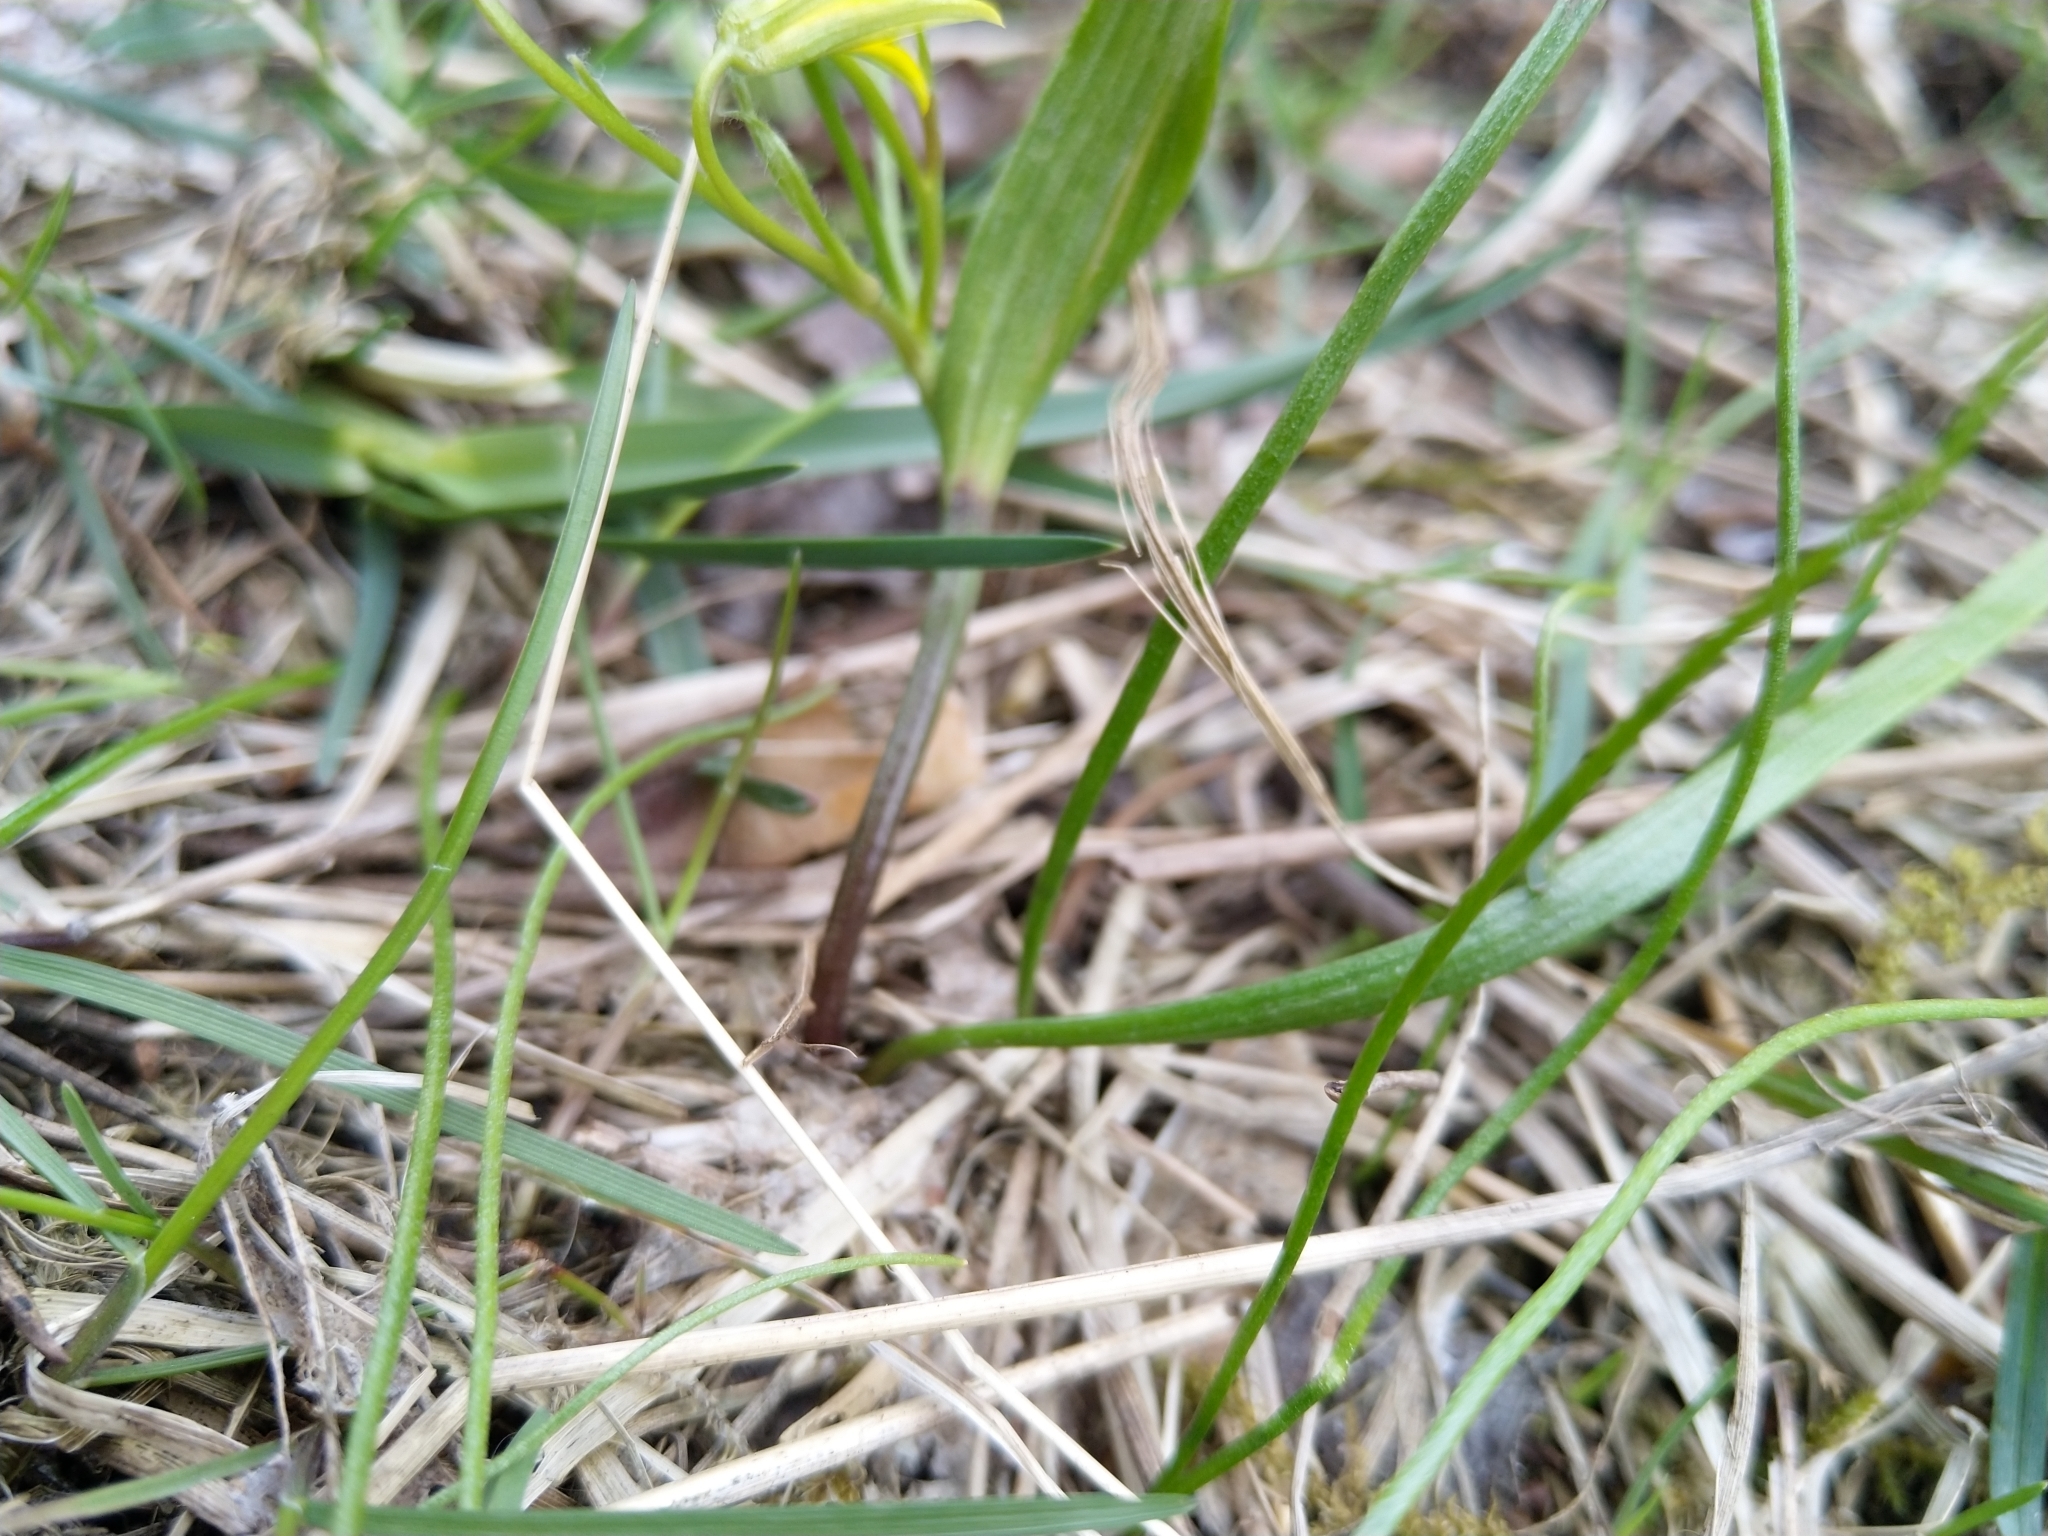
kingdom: Plantae
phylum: Tracheophyta
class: Liliopsida
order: Liliales
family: Liliaceae
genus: Gagea
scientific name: Gagea minima
